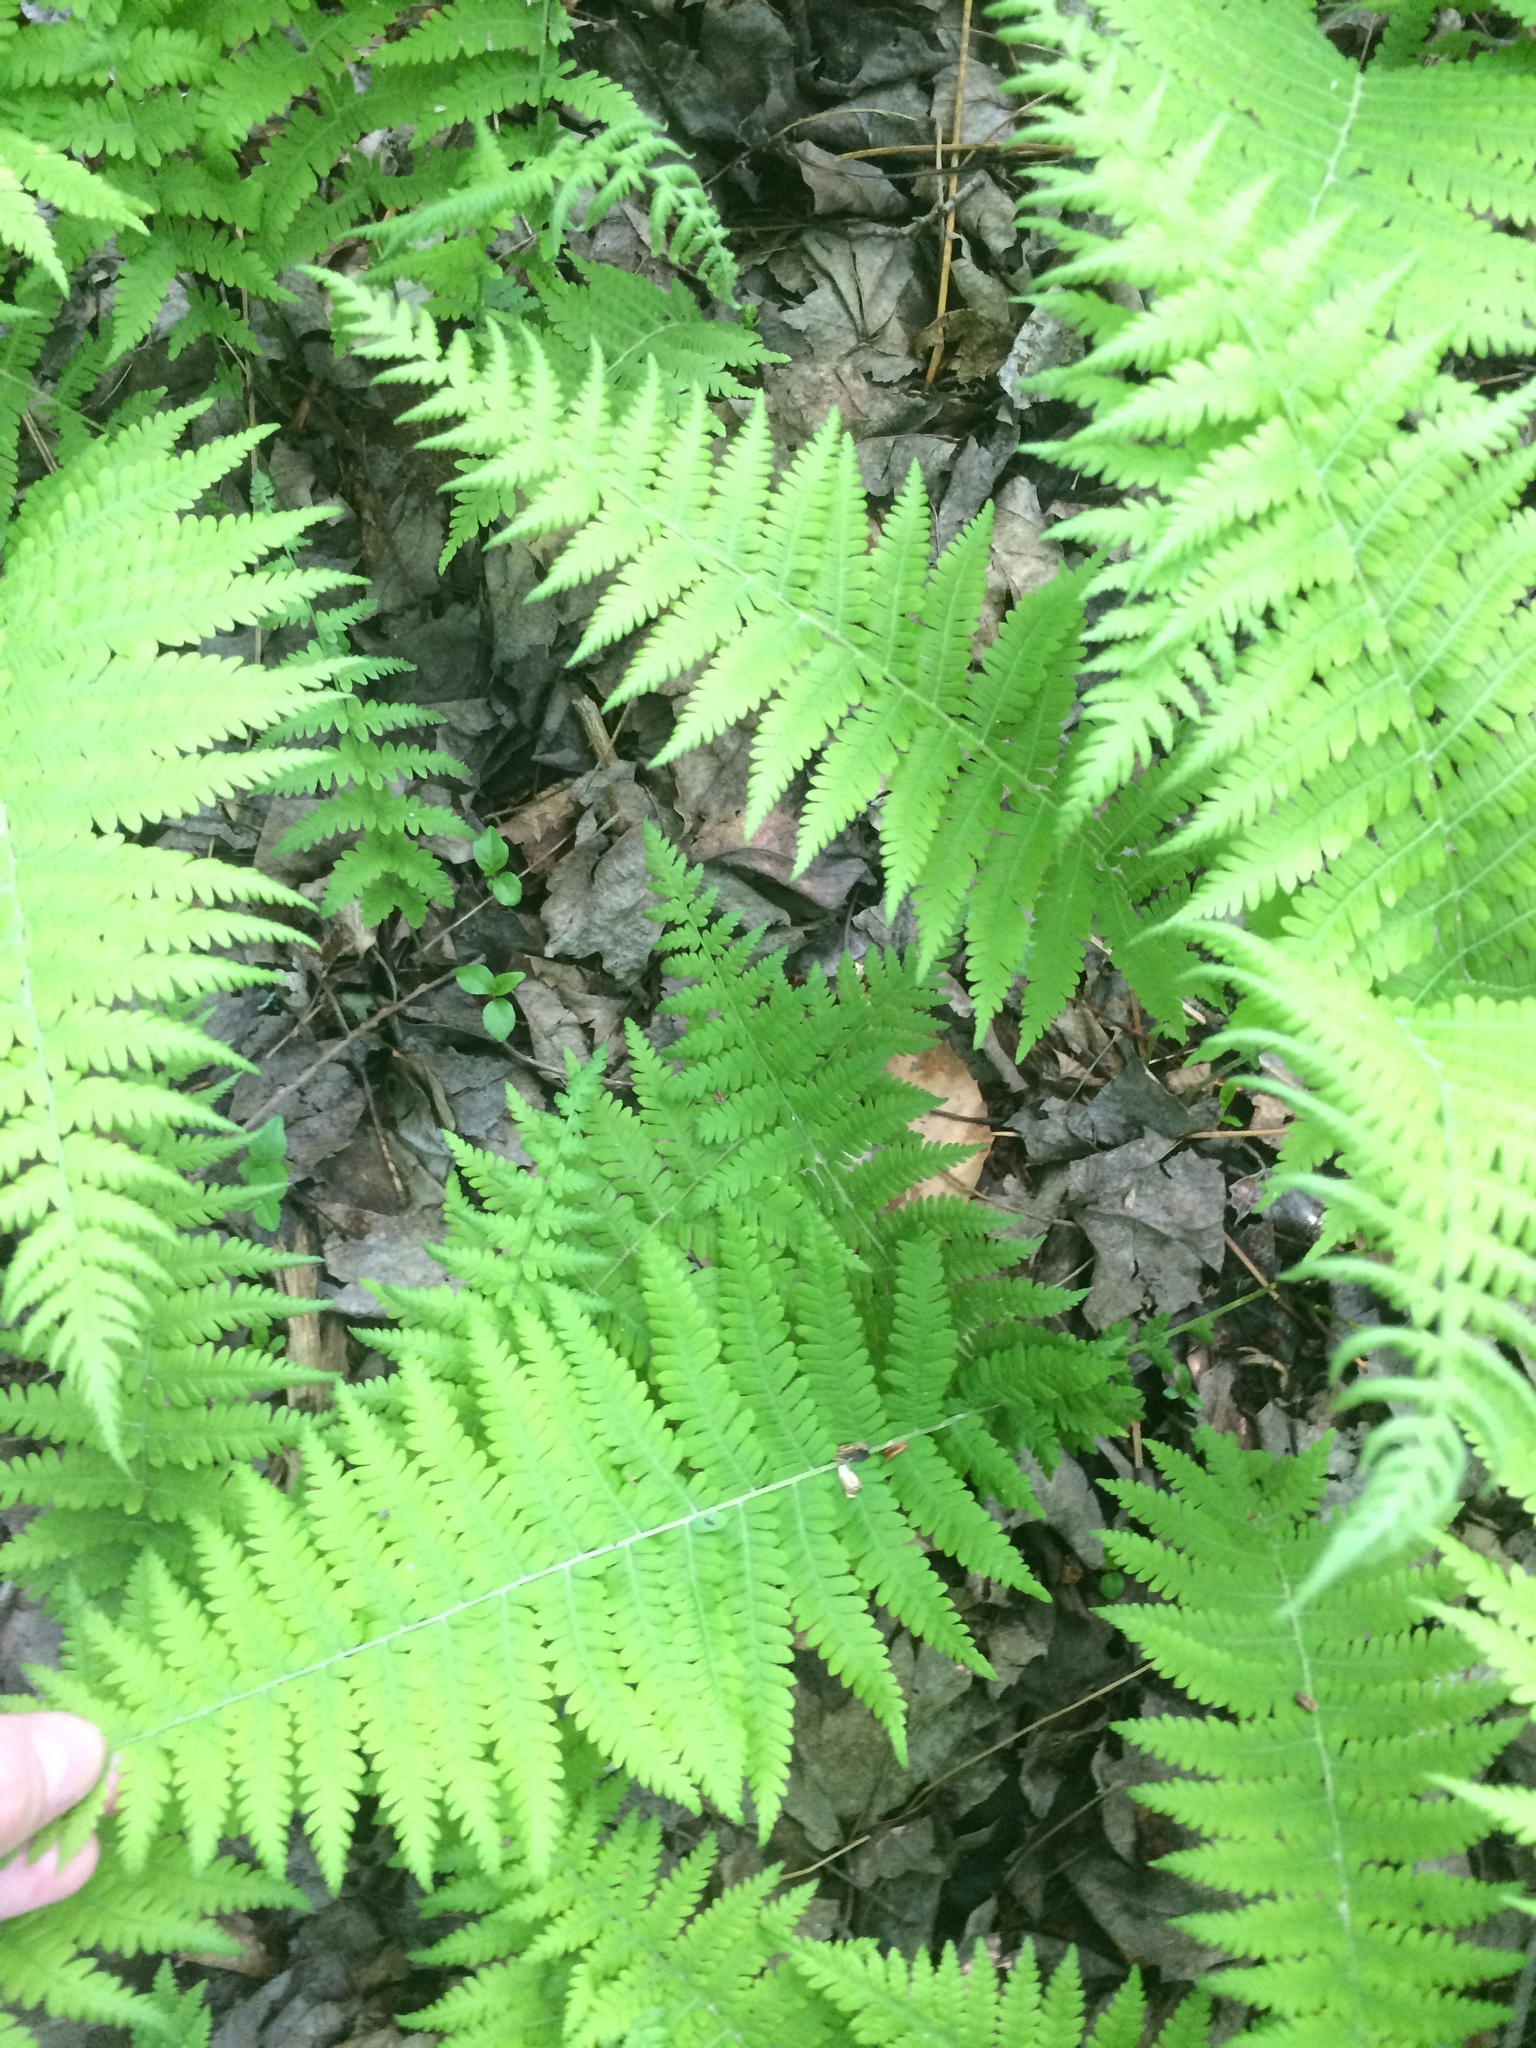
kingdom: Plantae
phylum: Tracheophyta
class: Polypodiopsida
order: Polypodiales
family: Thelypteridaceae
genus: Amauropelta
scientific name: Amauropelta noveboracensis
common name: New york fern
